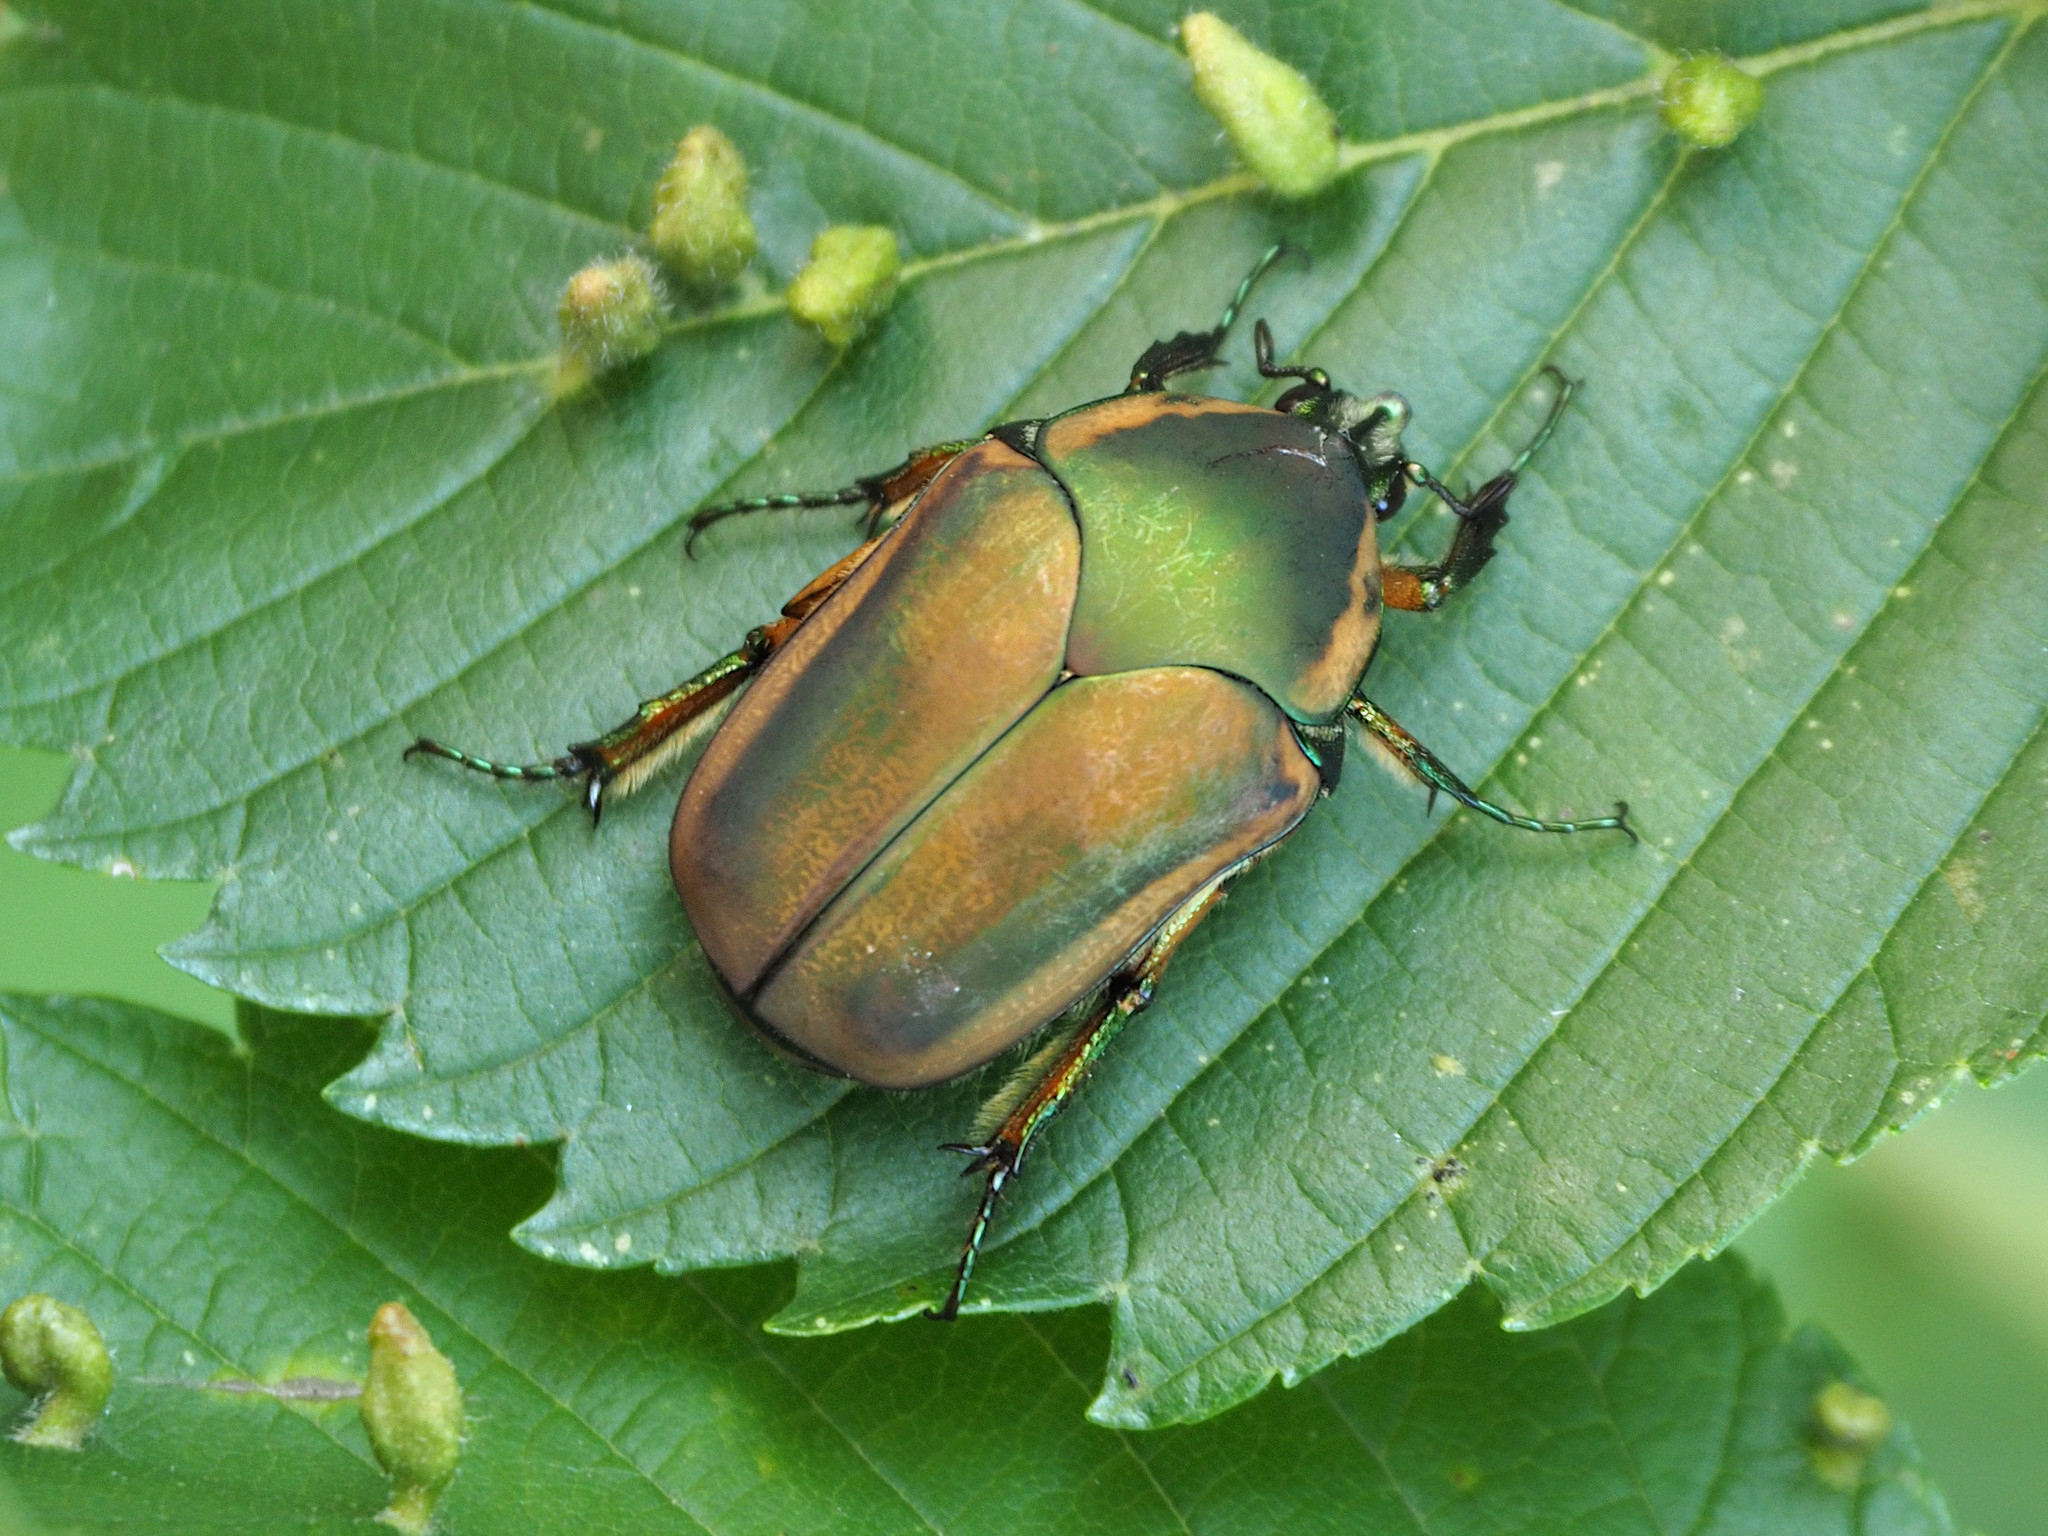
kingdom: Animalia
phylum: Arthropoda
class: Insecta
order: Coleoptera
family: Scarabaeidae
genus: Cotinis
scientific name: Cotinis nitida
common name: Common green june beetle
